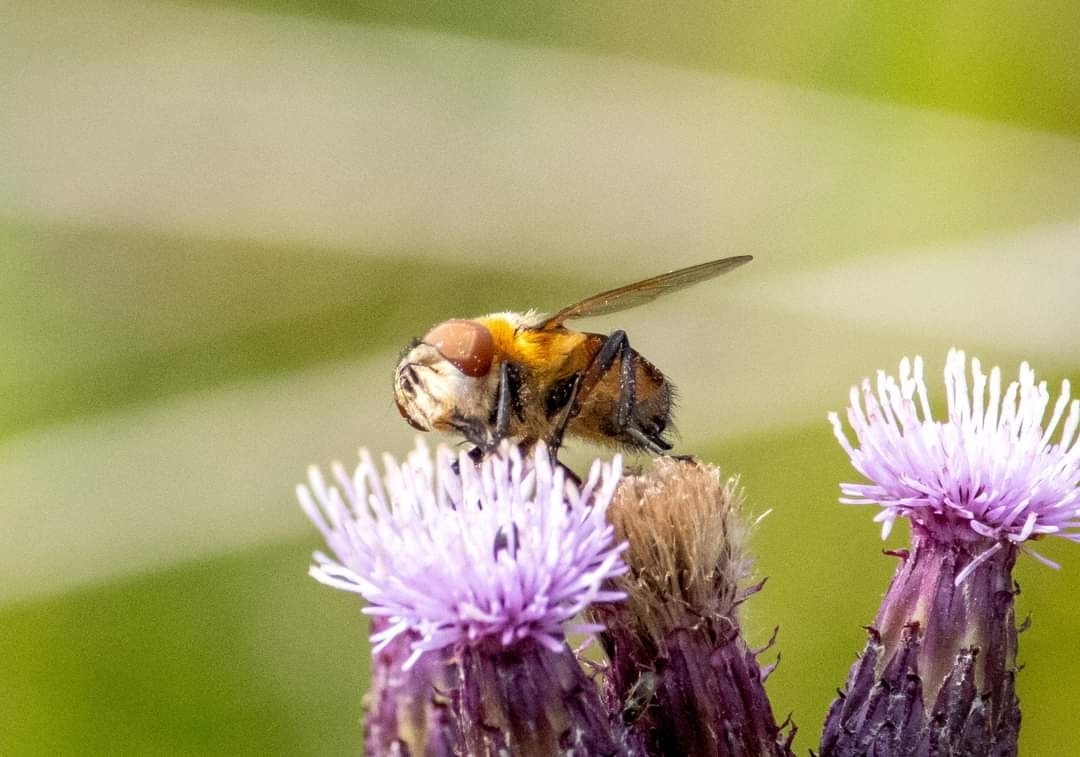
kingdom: Animalia
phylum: Arthropoda
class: Insecta
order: Diptera
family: Tachinidae
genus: Phasia
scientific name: Phasia hemiptera
